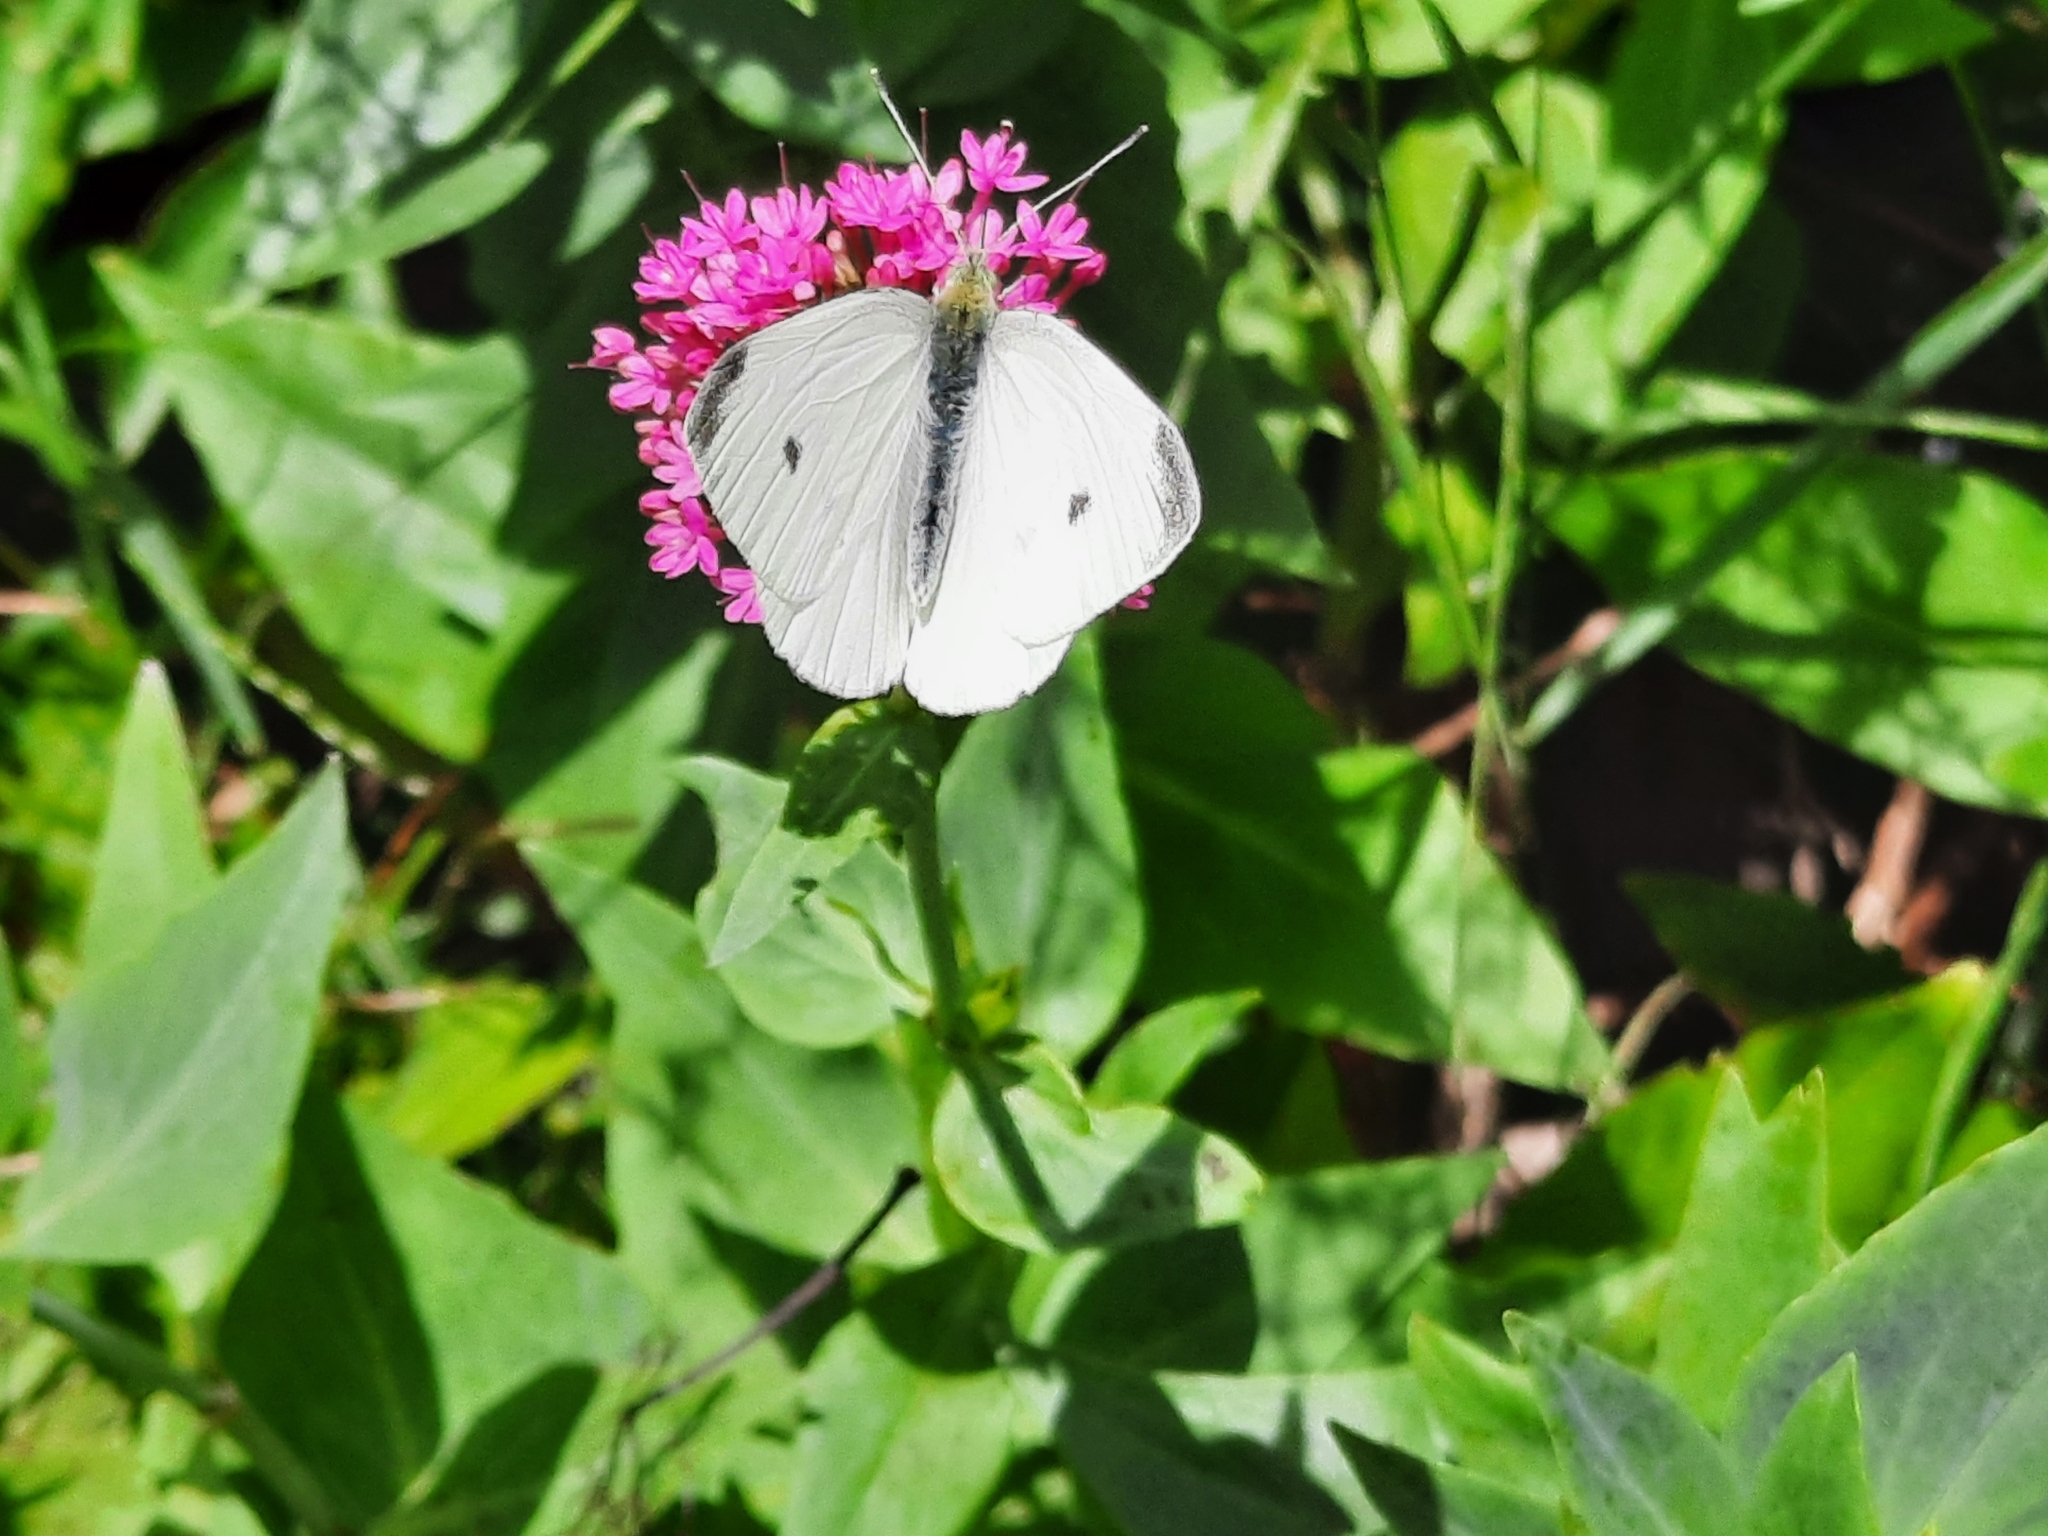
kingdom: Animalia
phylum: Arthropoda
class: Insecta
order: Lepidoptera
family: Pieridae
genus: Pieris
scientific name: Pieris rapae
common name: Small white
